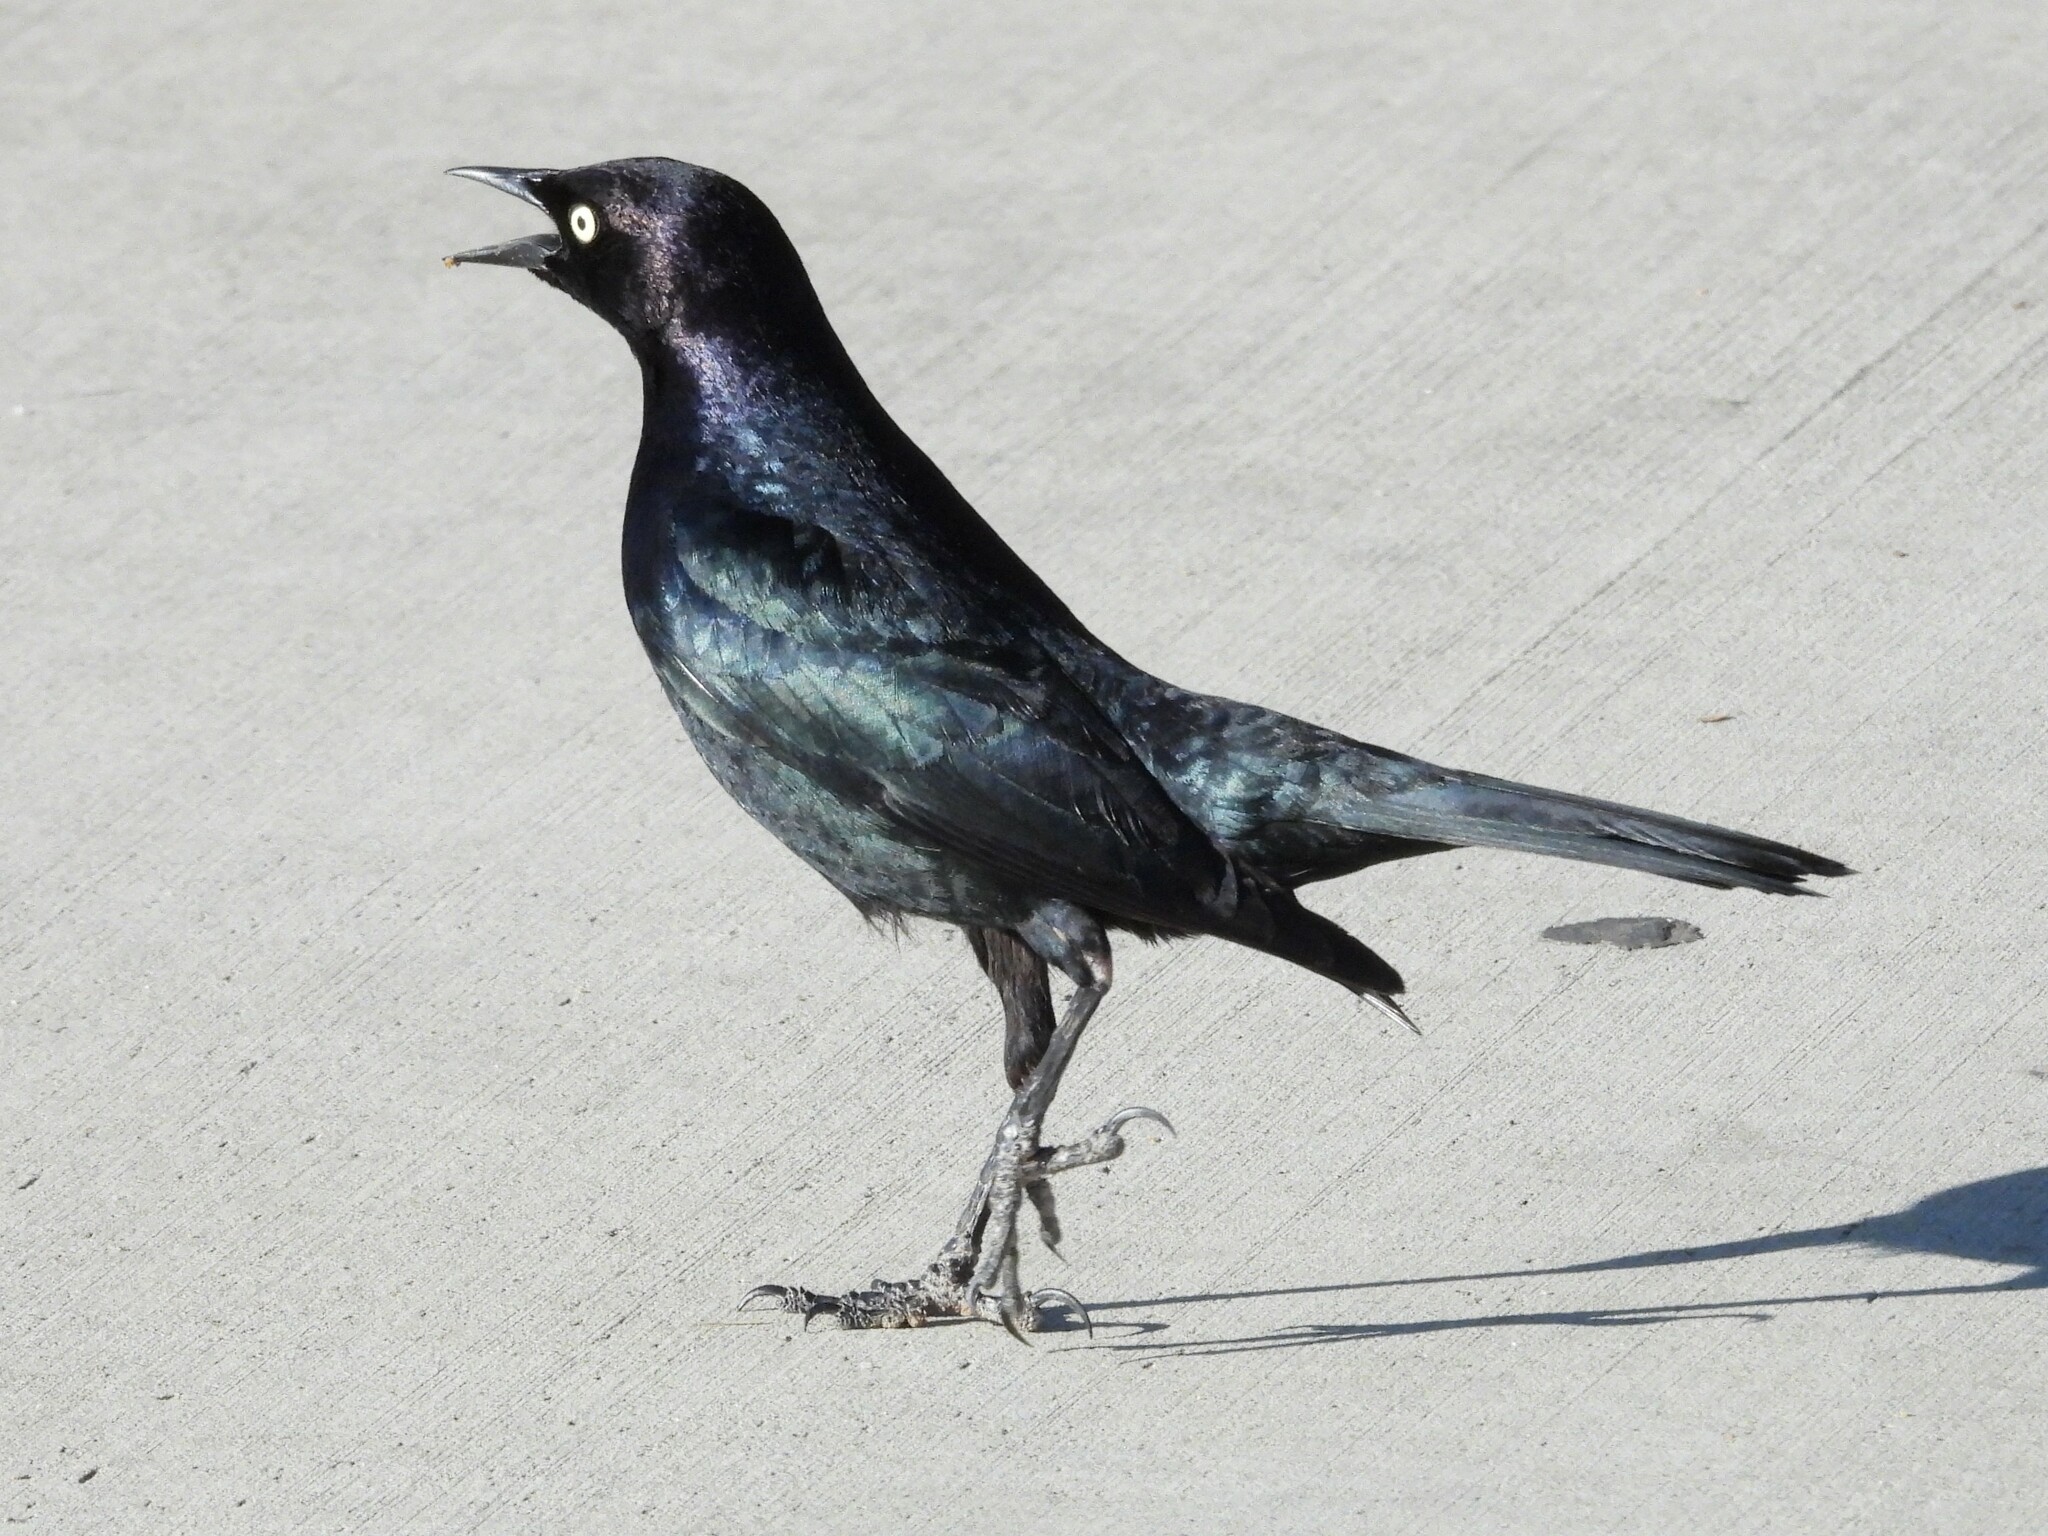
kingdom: Animalia
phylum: Chordata
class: Aves
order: Passeriformes
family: Icteridae
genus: Euphagus
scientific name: Euphagus cyanocephalus
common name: Brewer's blackbird
